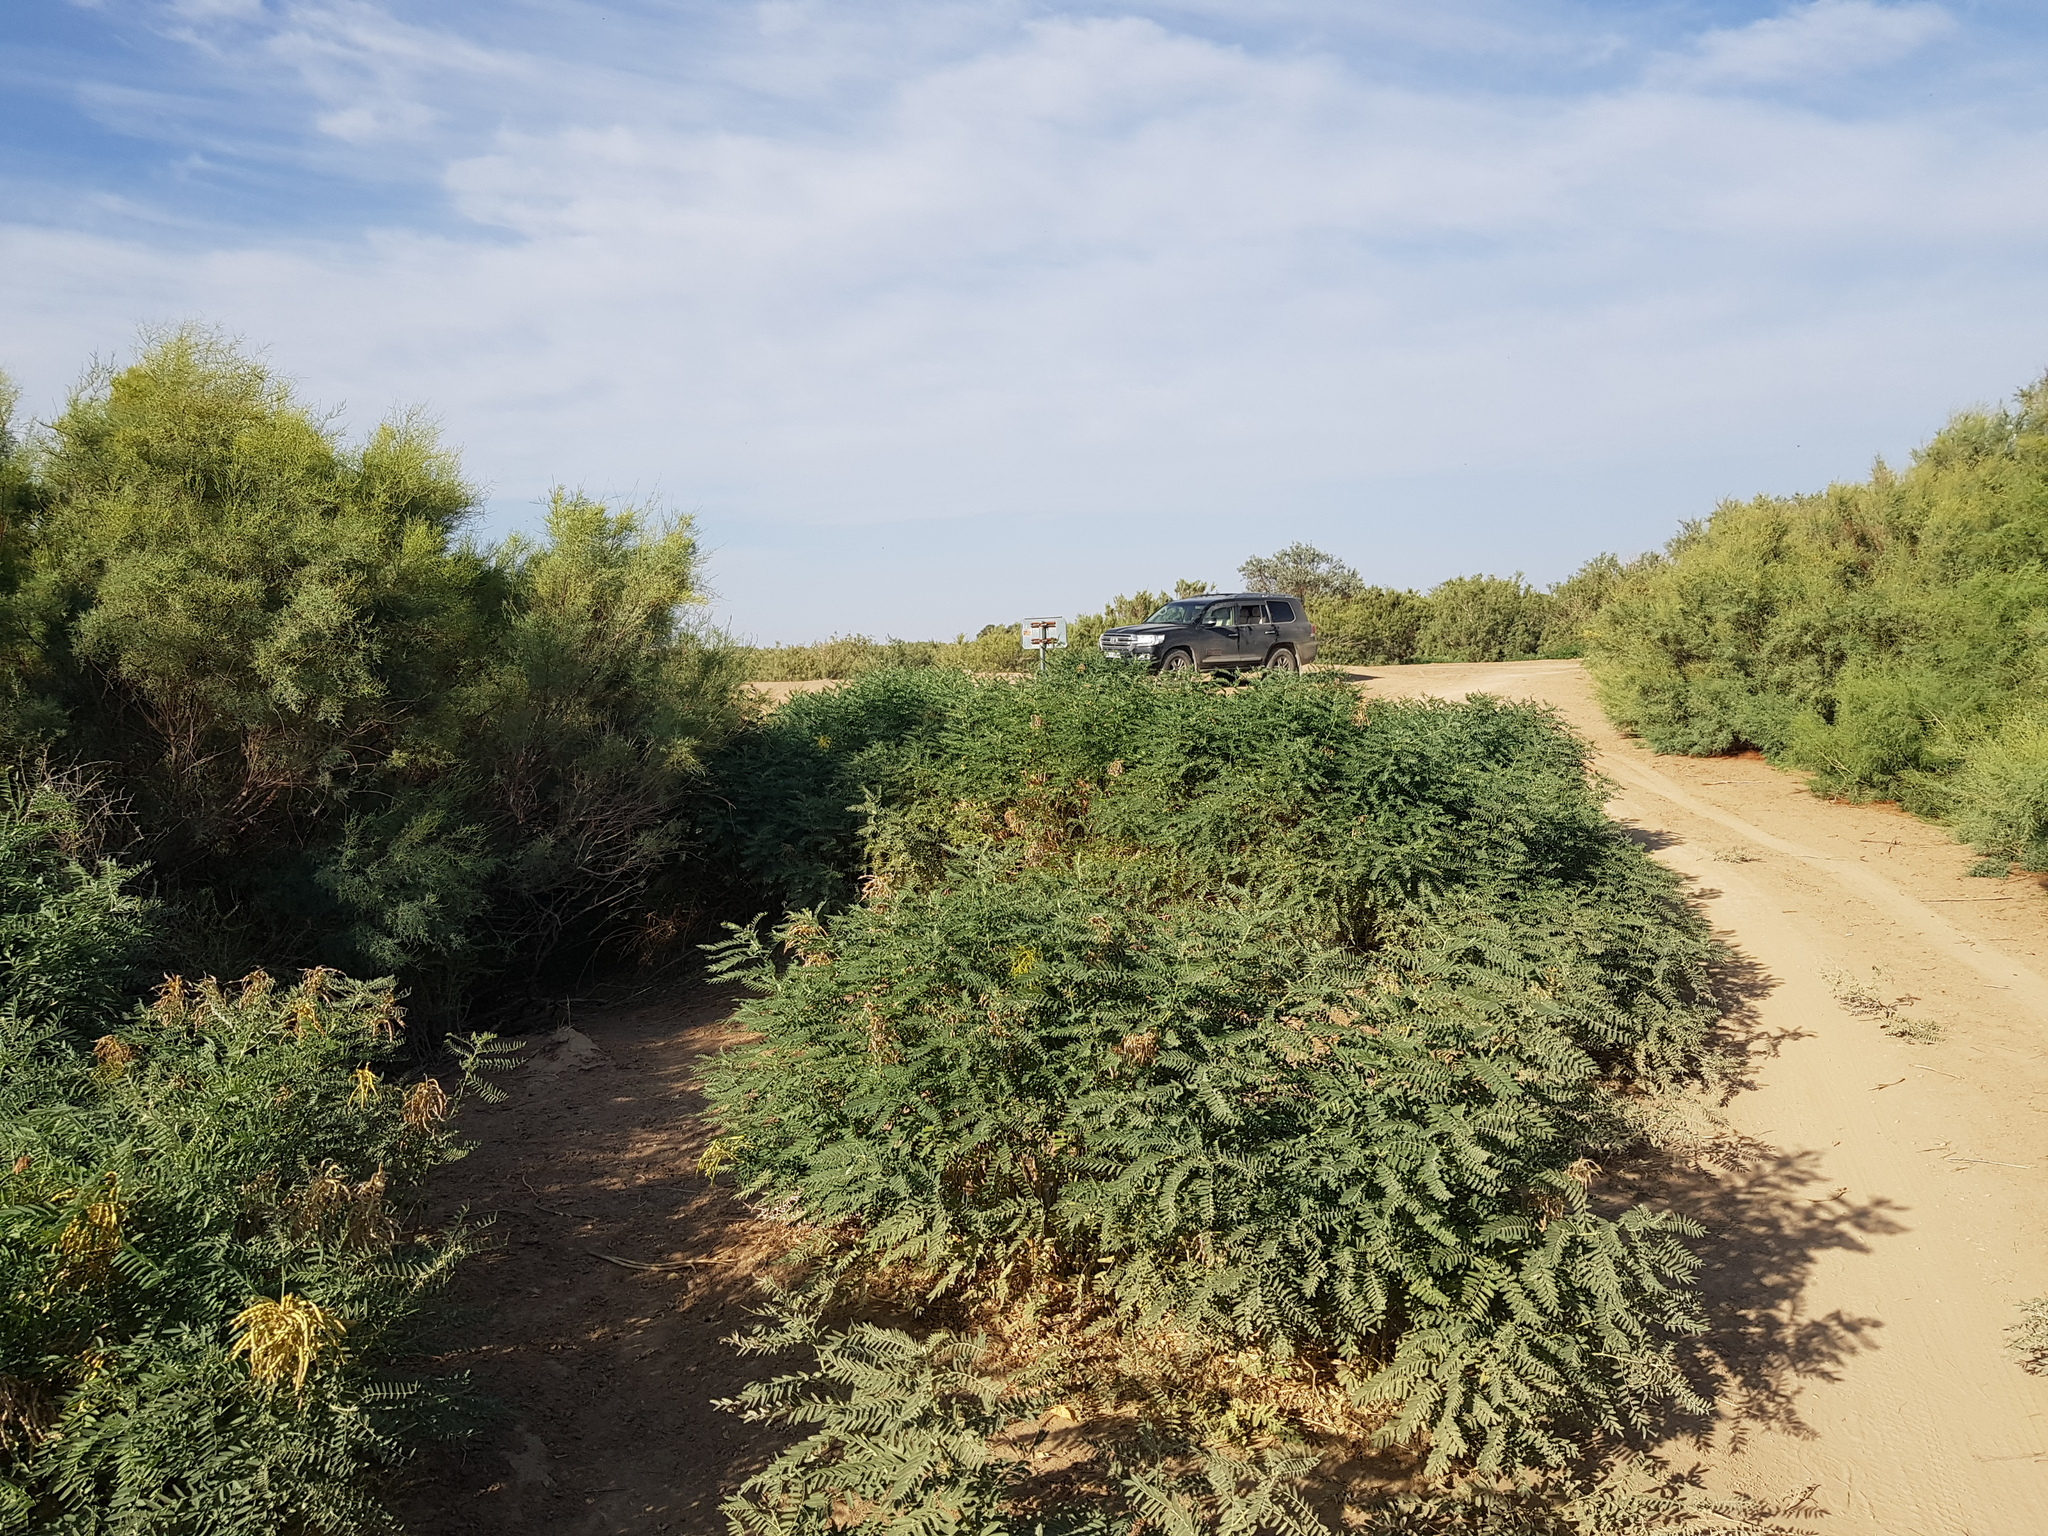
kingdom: Plantae
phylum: Tracheophyta
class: Magnoliopsida
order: Fabales
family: Fabaceae
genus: Sophora
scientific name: Sophora alopecuroides
